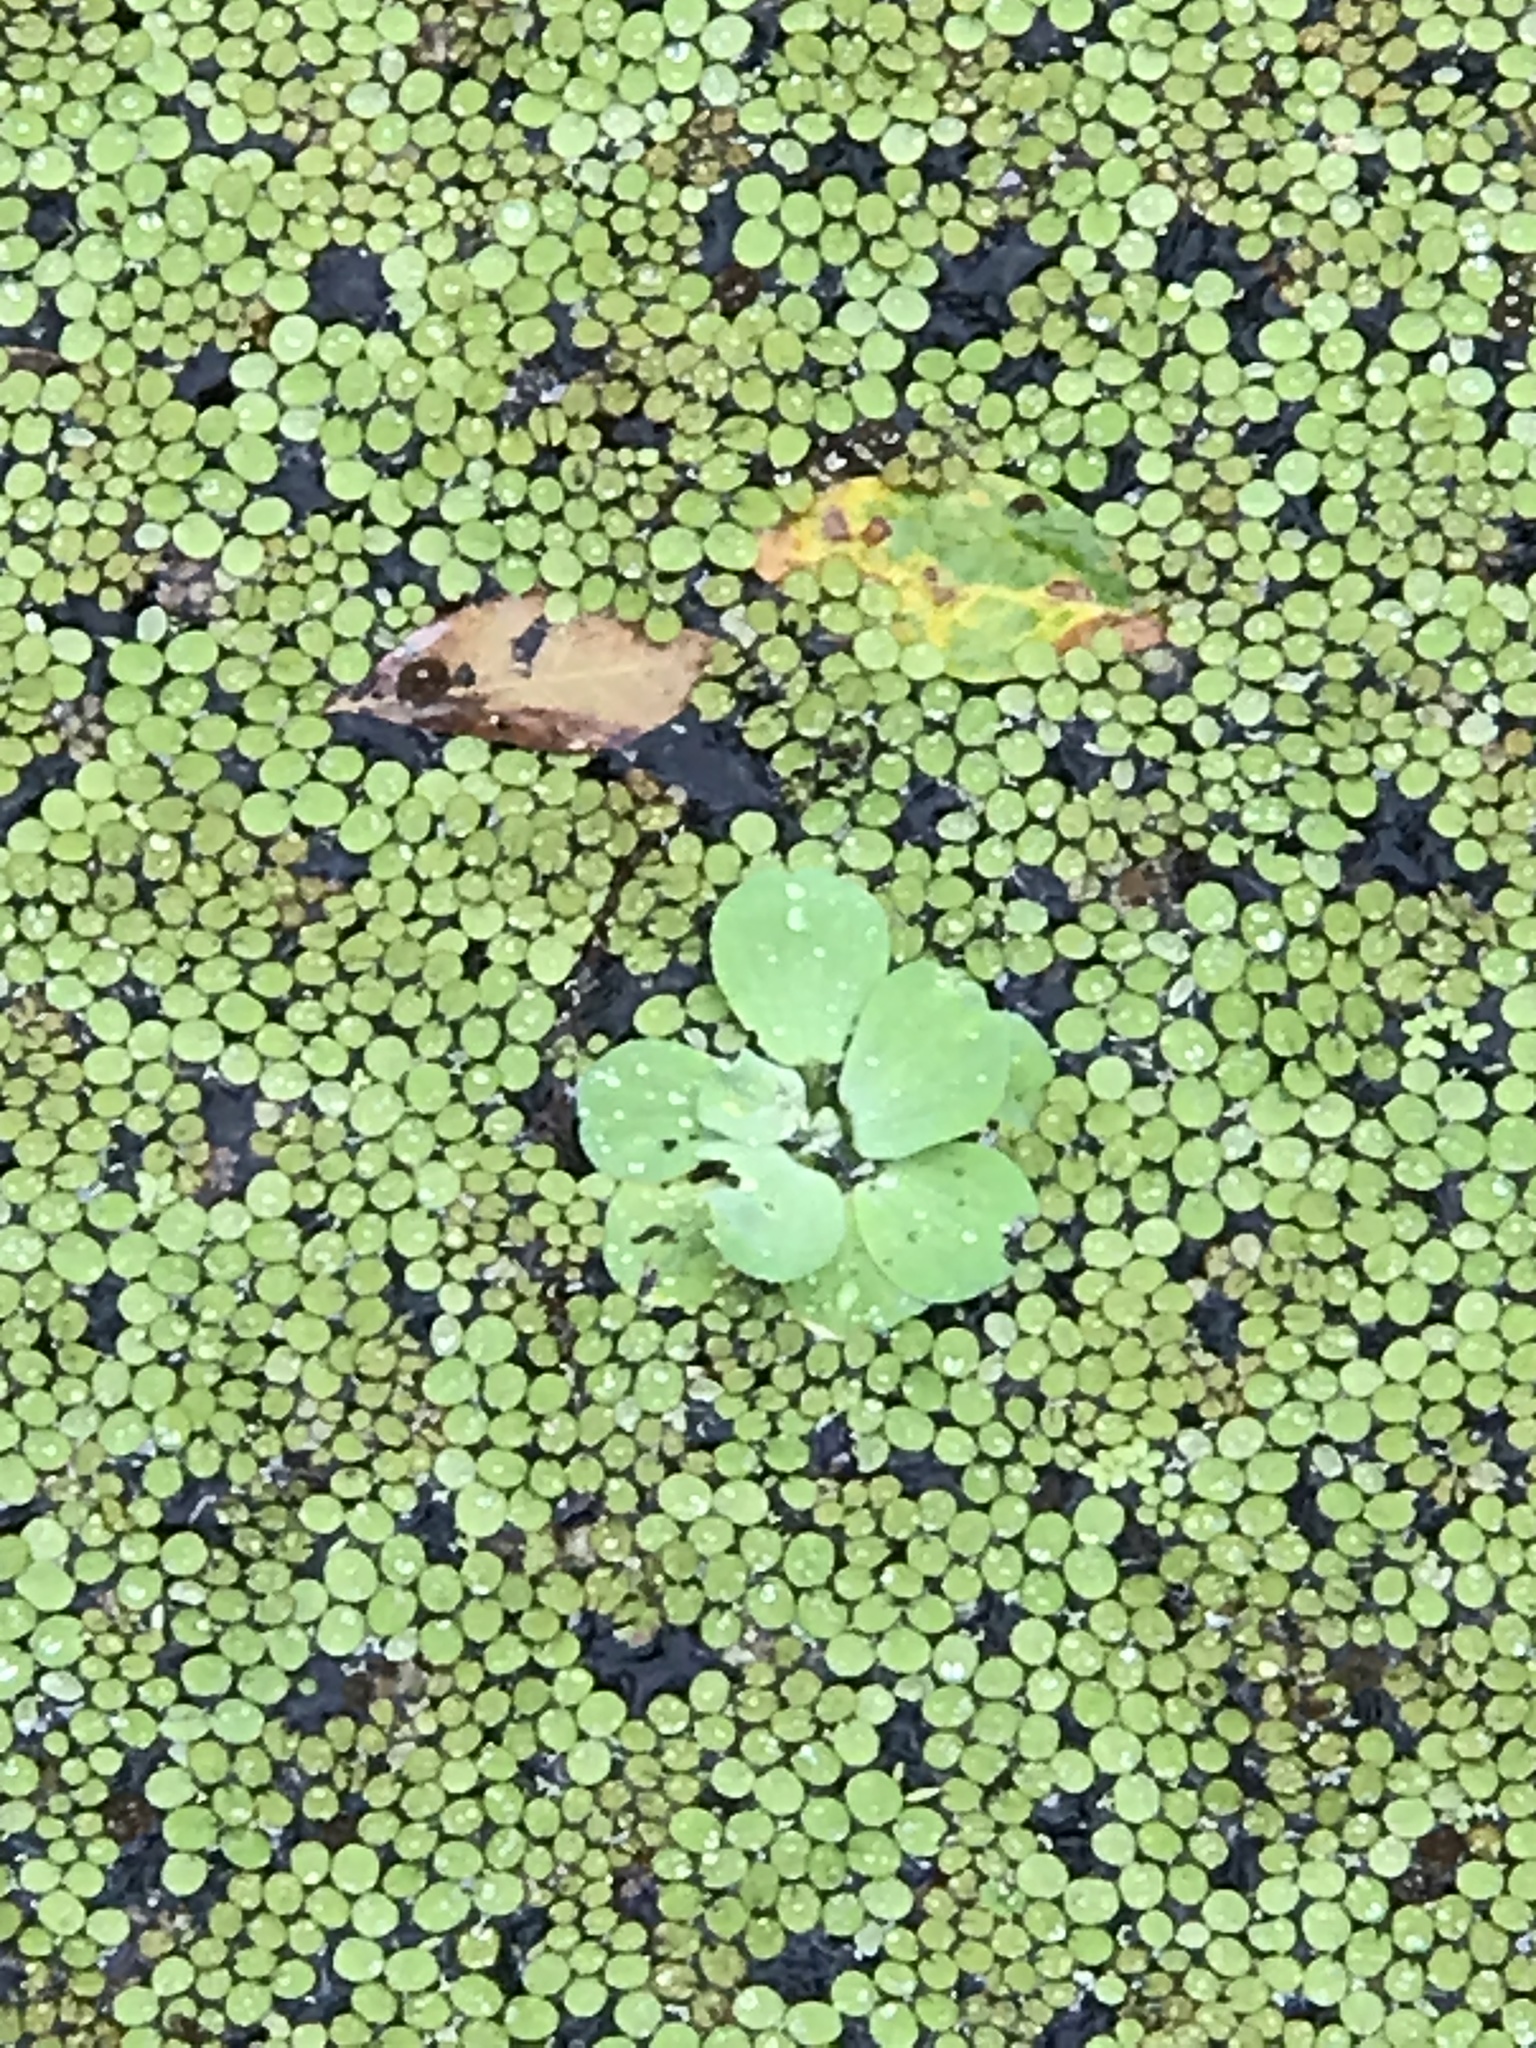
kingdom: Plantae
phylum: Tracheophyta
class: Liliopsida
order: Alismatales
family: Araceae
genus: Pistia
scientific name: Pistia stratiotes
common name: Water lettuce
